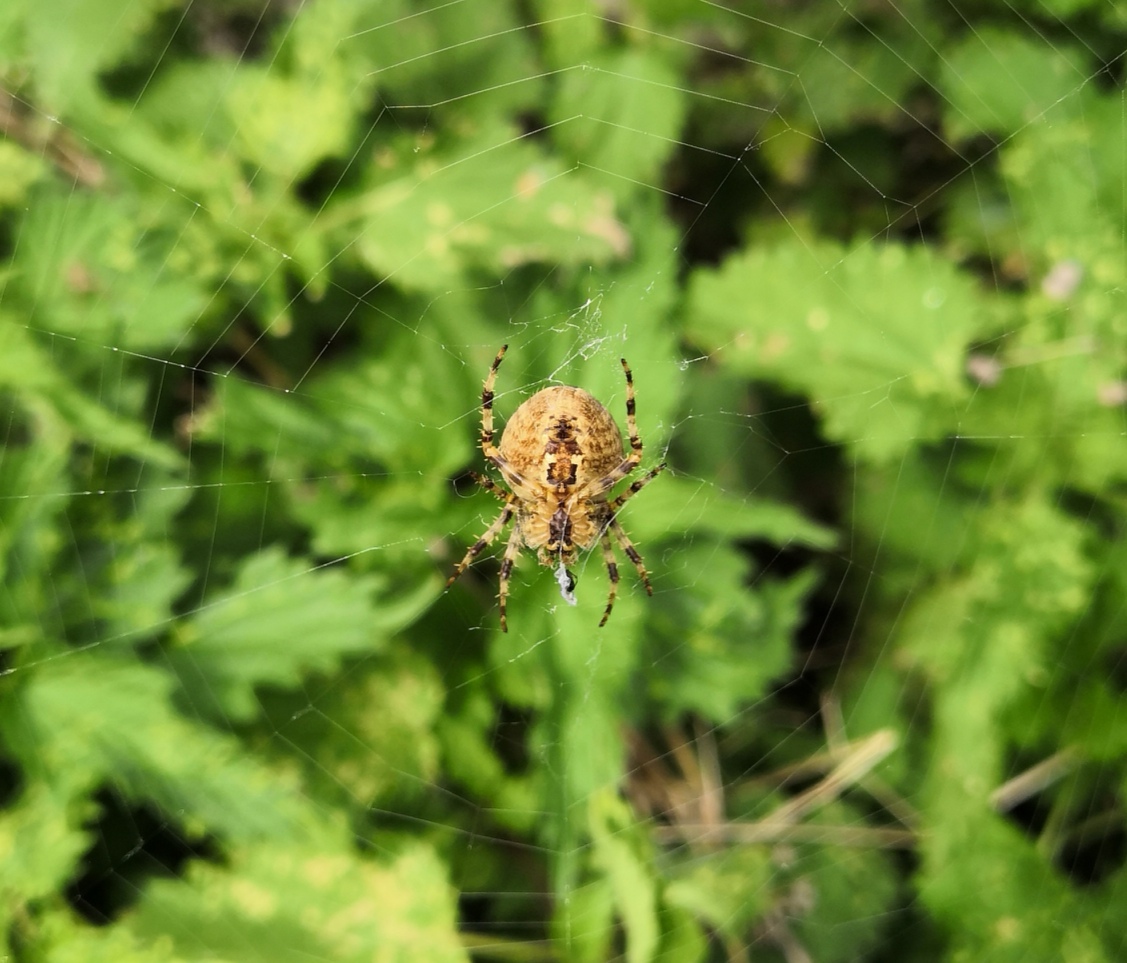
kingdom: Animalia
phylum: Arthropoda
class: Arachnida
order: Araneae
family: Araneidae
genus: Araneus
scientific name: Araneus diadematus
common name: Cross orbweaver
